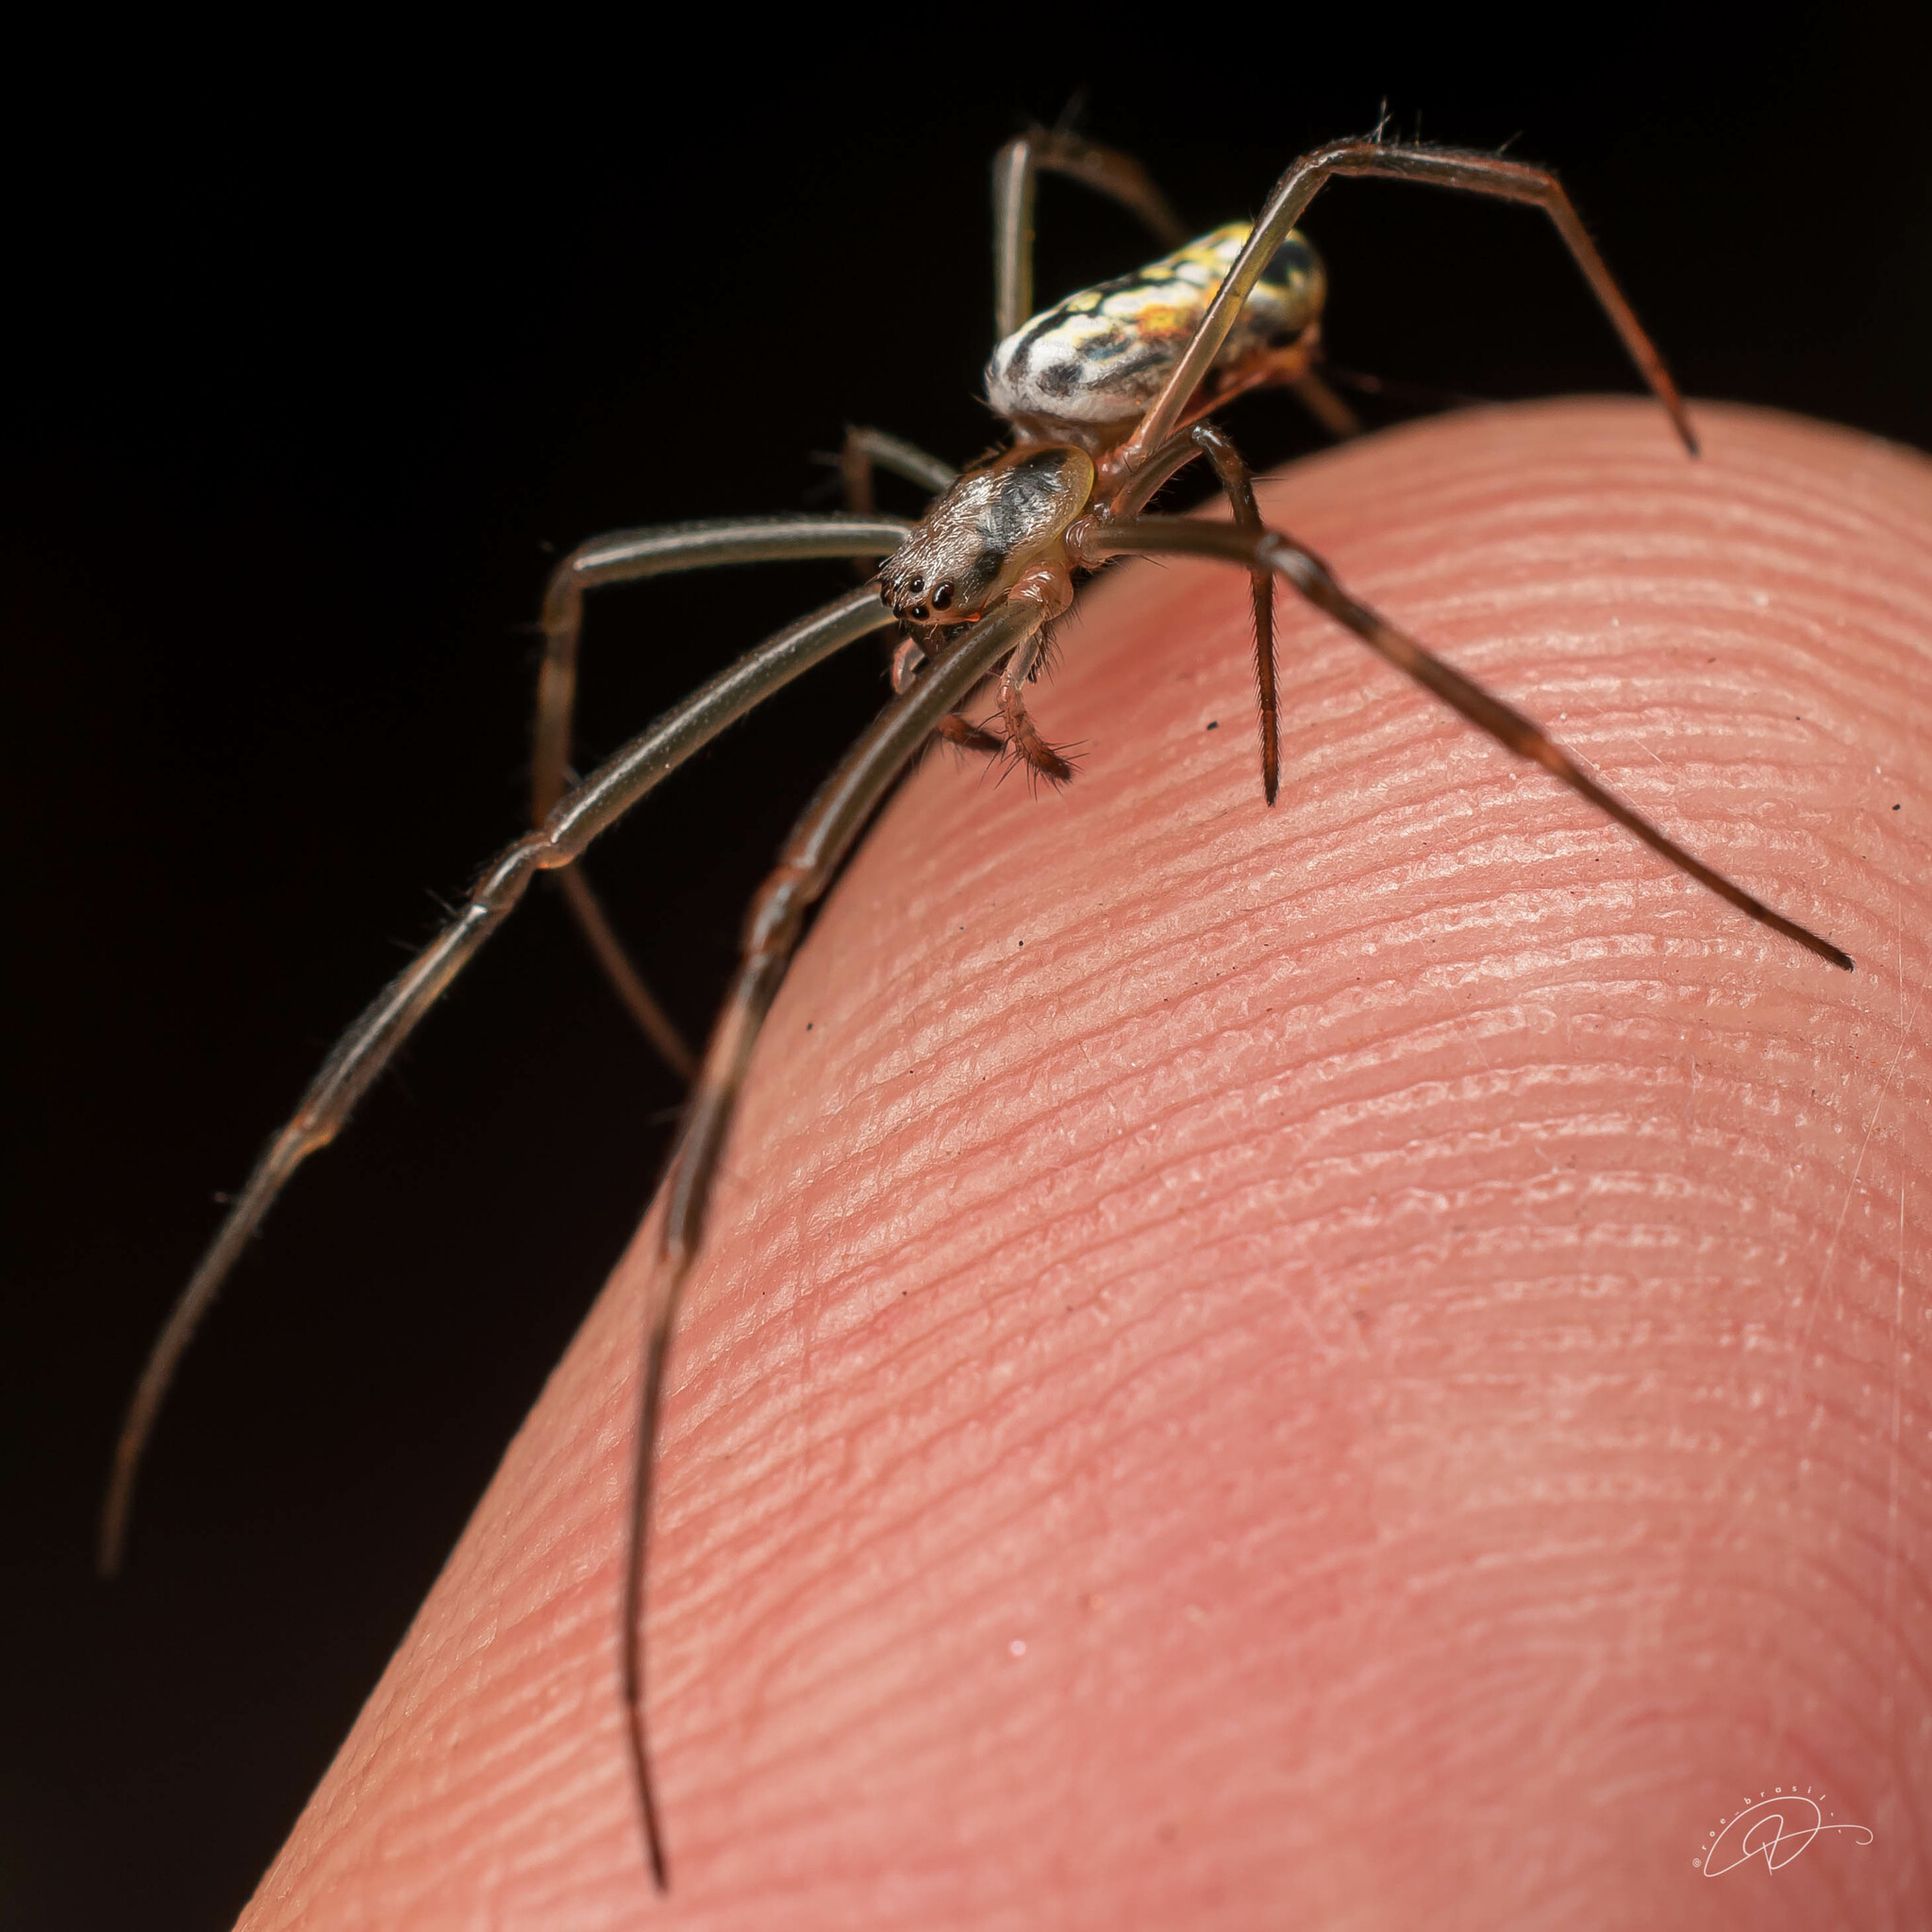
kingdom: Animalia
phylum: Arthropoda
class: Arachnida
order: Araneae
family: Araneidae
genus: Trichonephila
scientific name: Trichonephila clavipes
